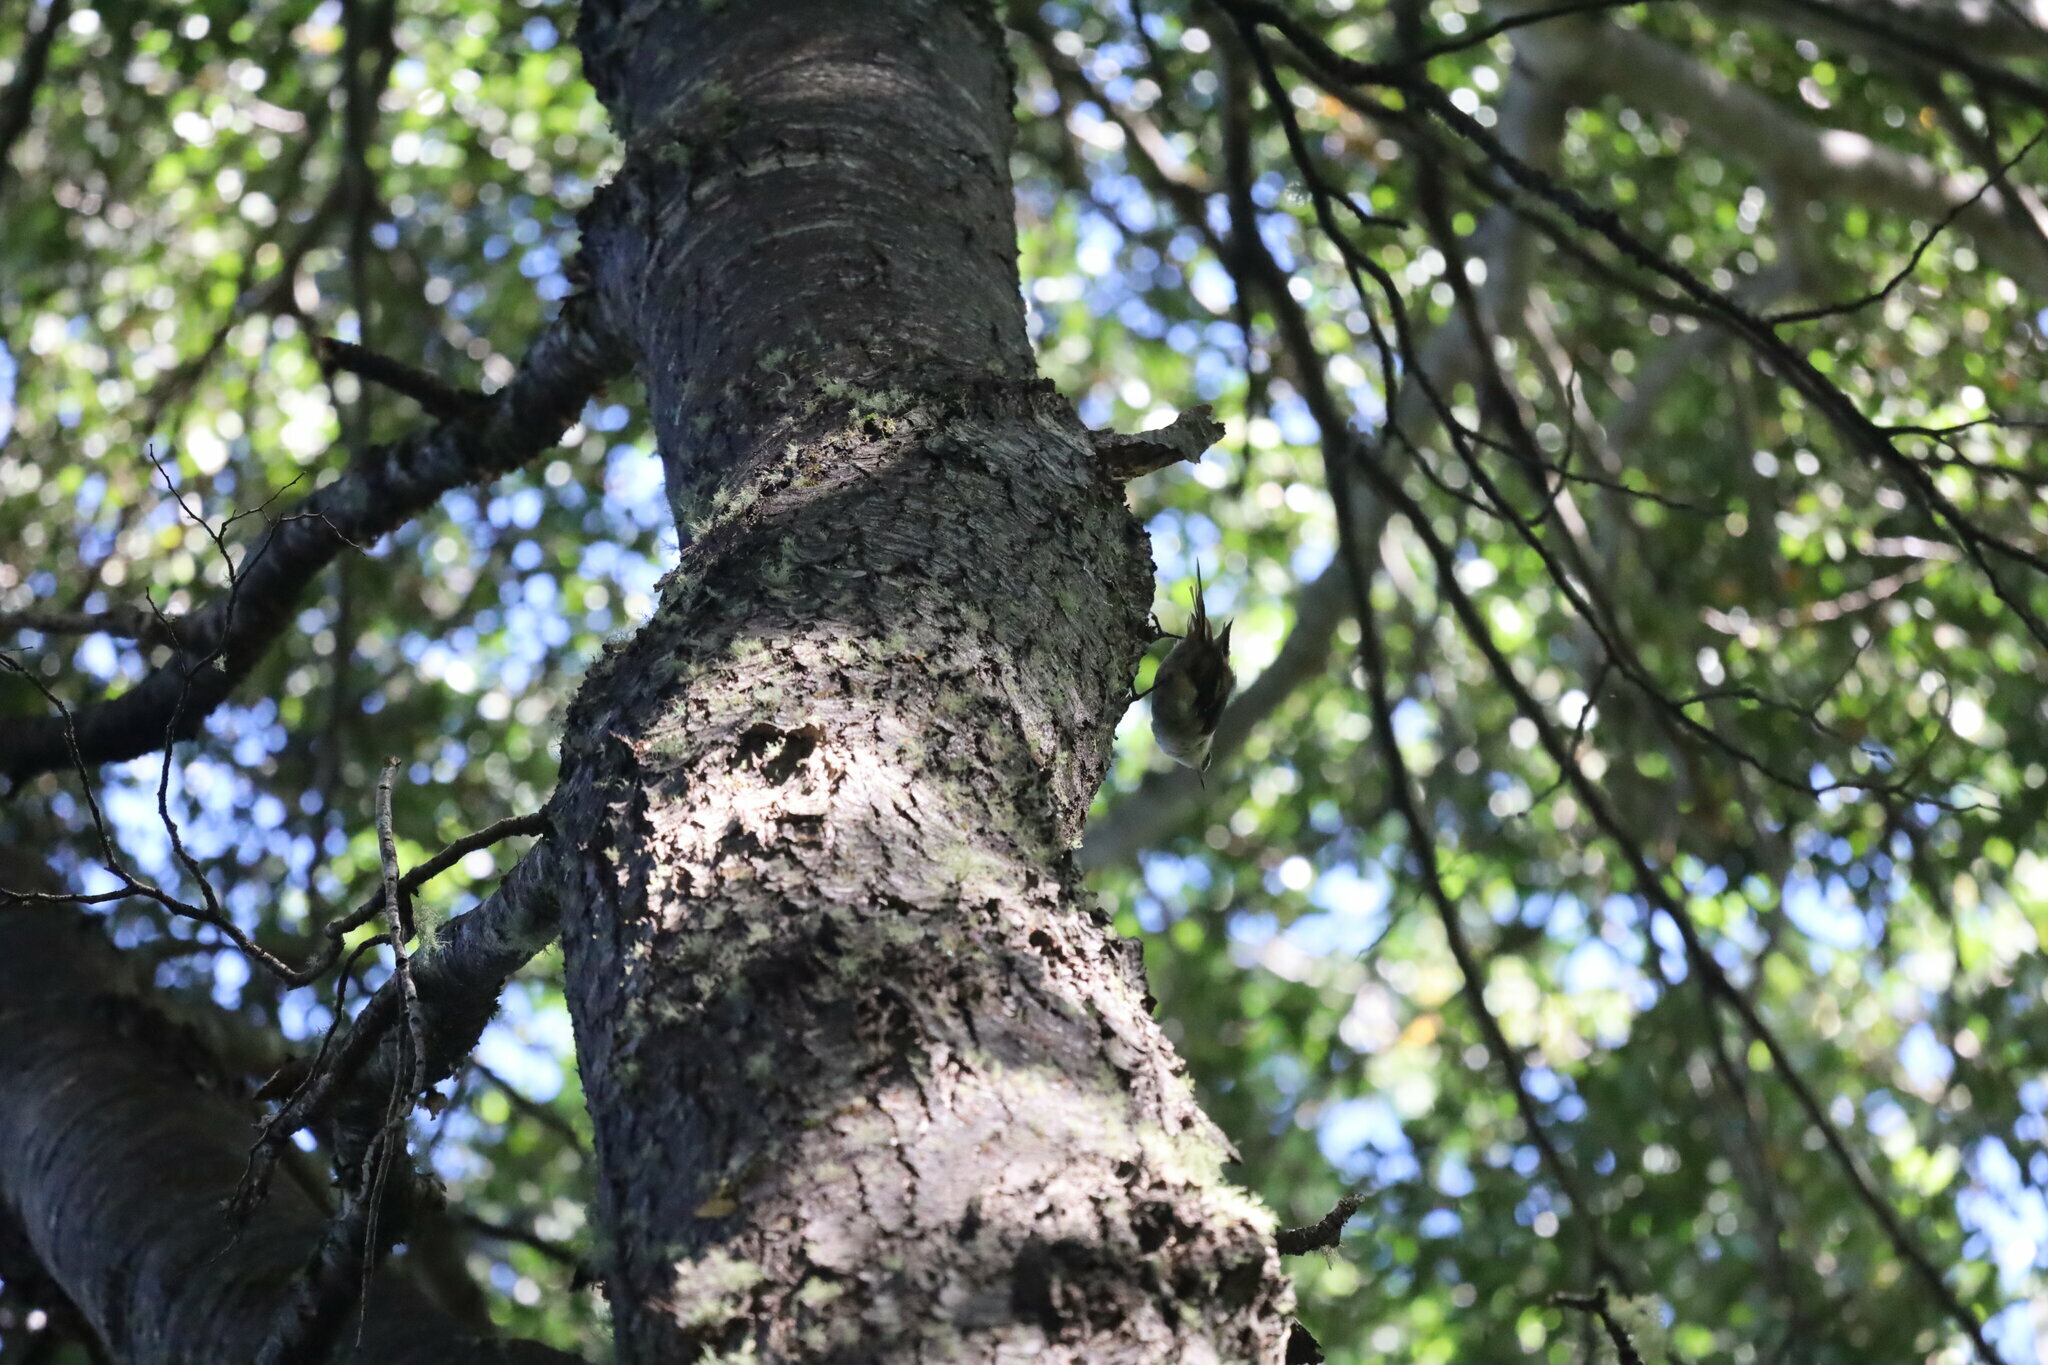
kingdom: Animalia
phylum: Chordata
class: Aves
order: Passeriformes
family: Furnariidae
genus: Aphrastura
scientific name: Aphrastura spinicauda
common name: Thorn-tailed rayadito
